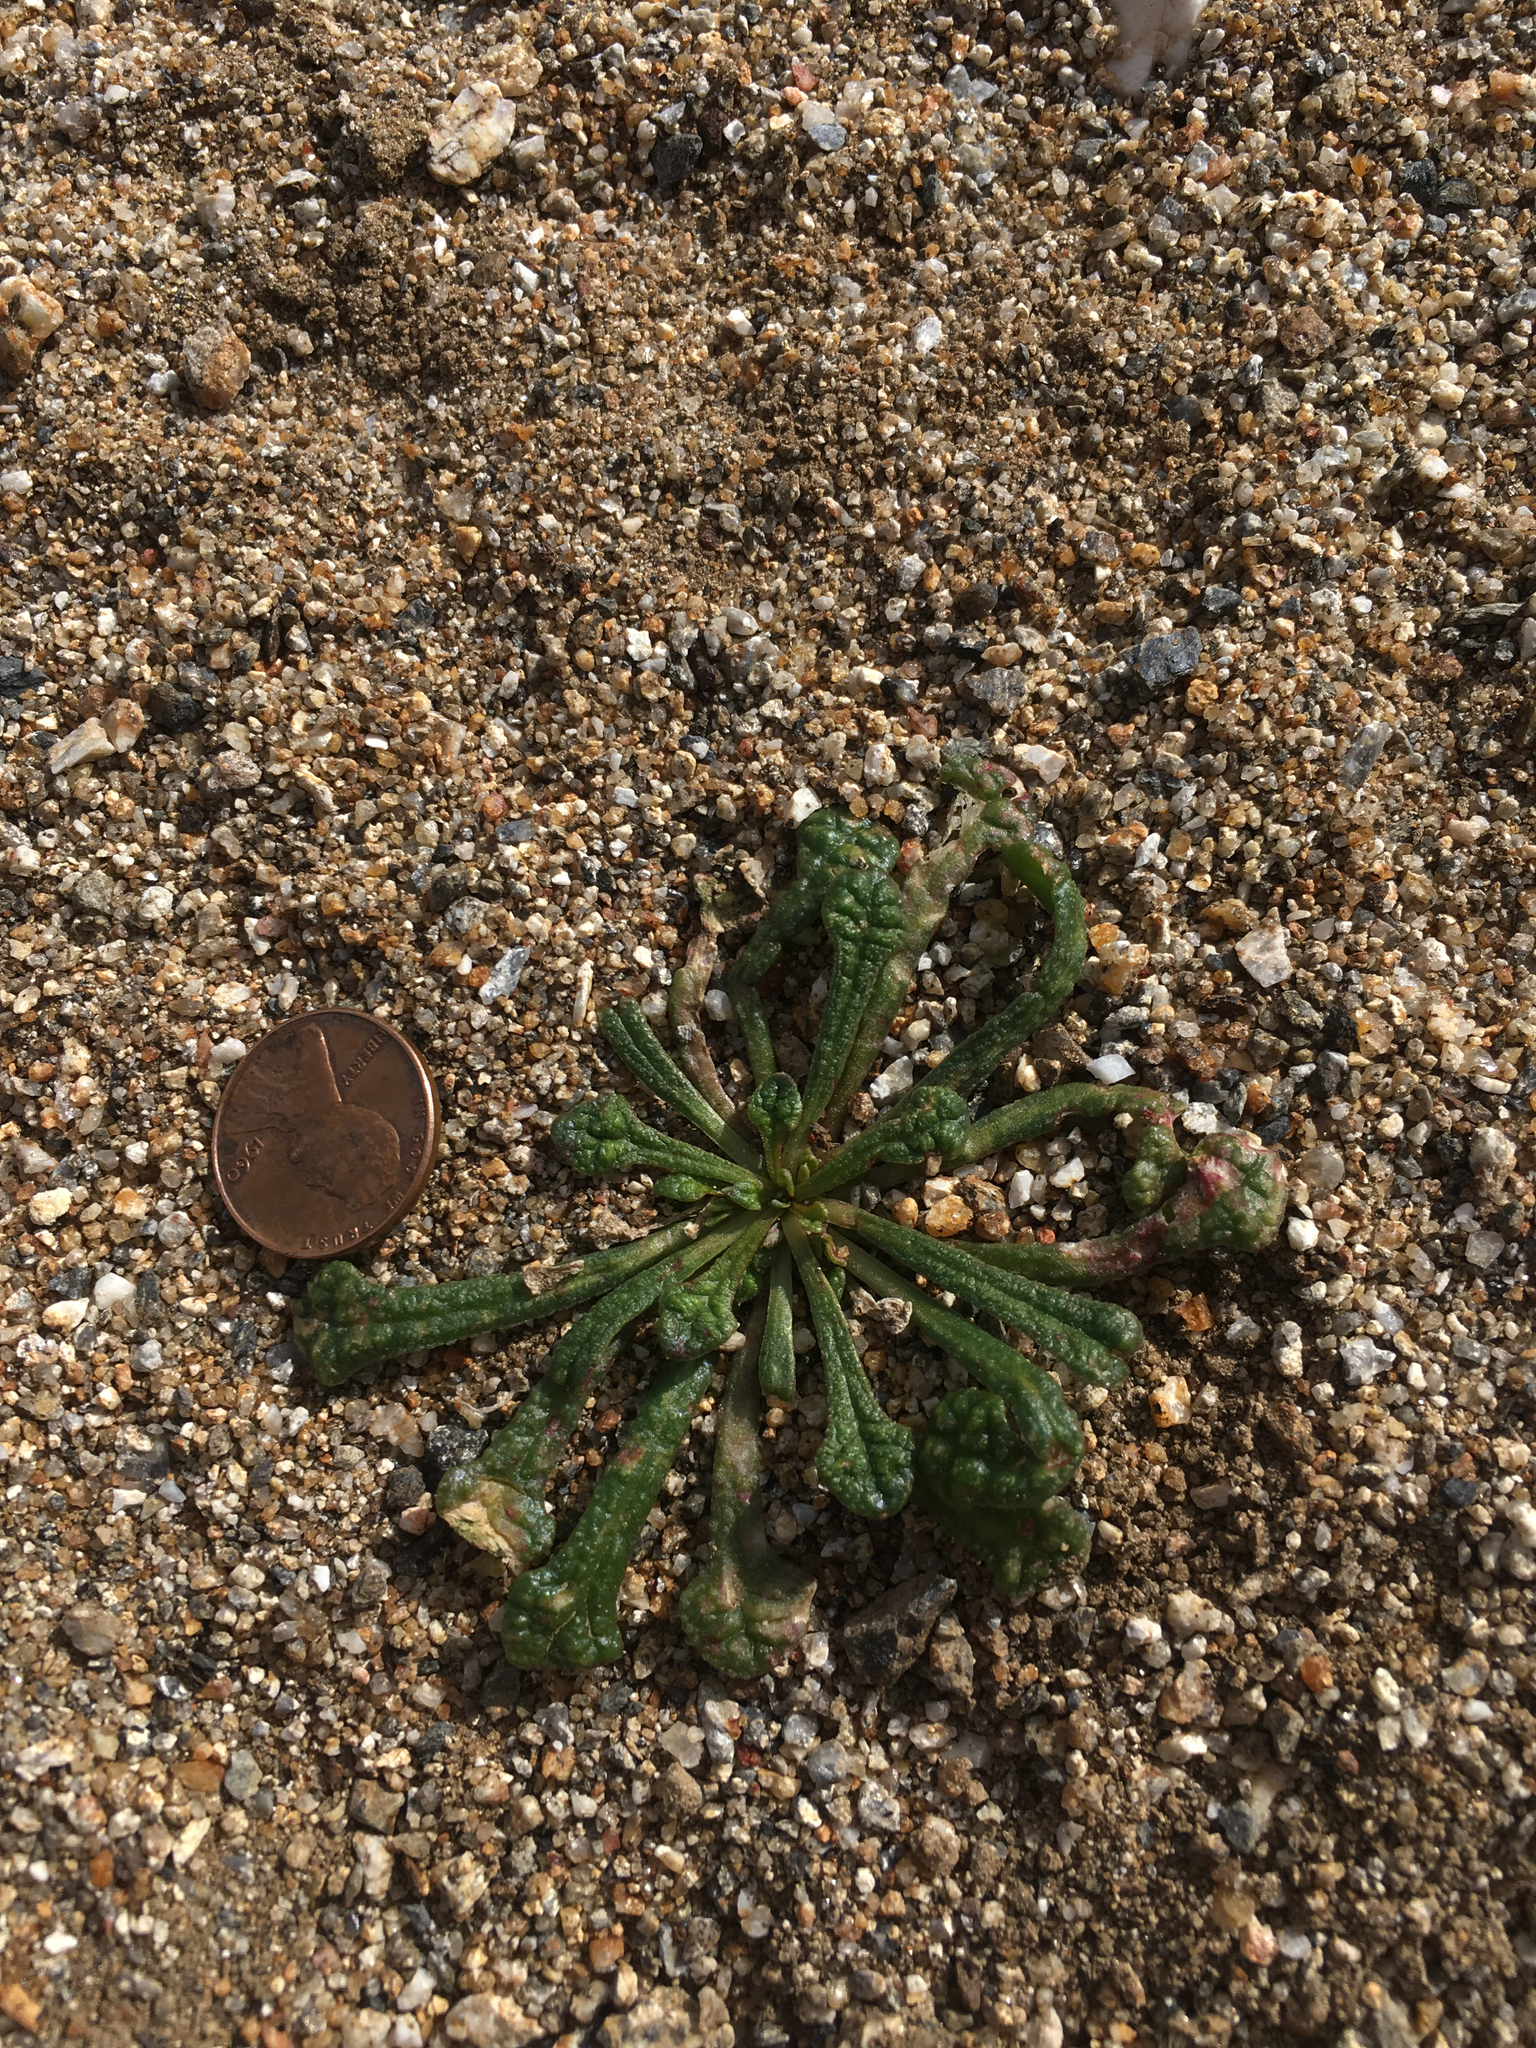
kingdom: Plantae
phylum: Tracheophyta
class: Magnoliopsida
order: Caryophyllales
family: Montiaceae
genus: Calyptridium
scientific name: Calyptridium monandrum
